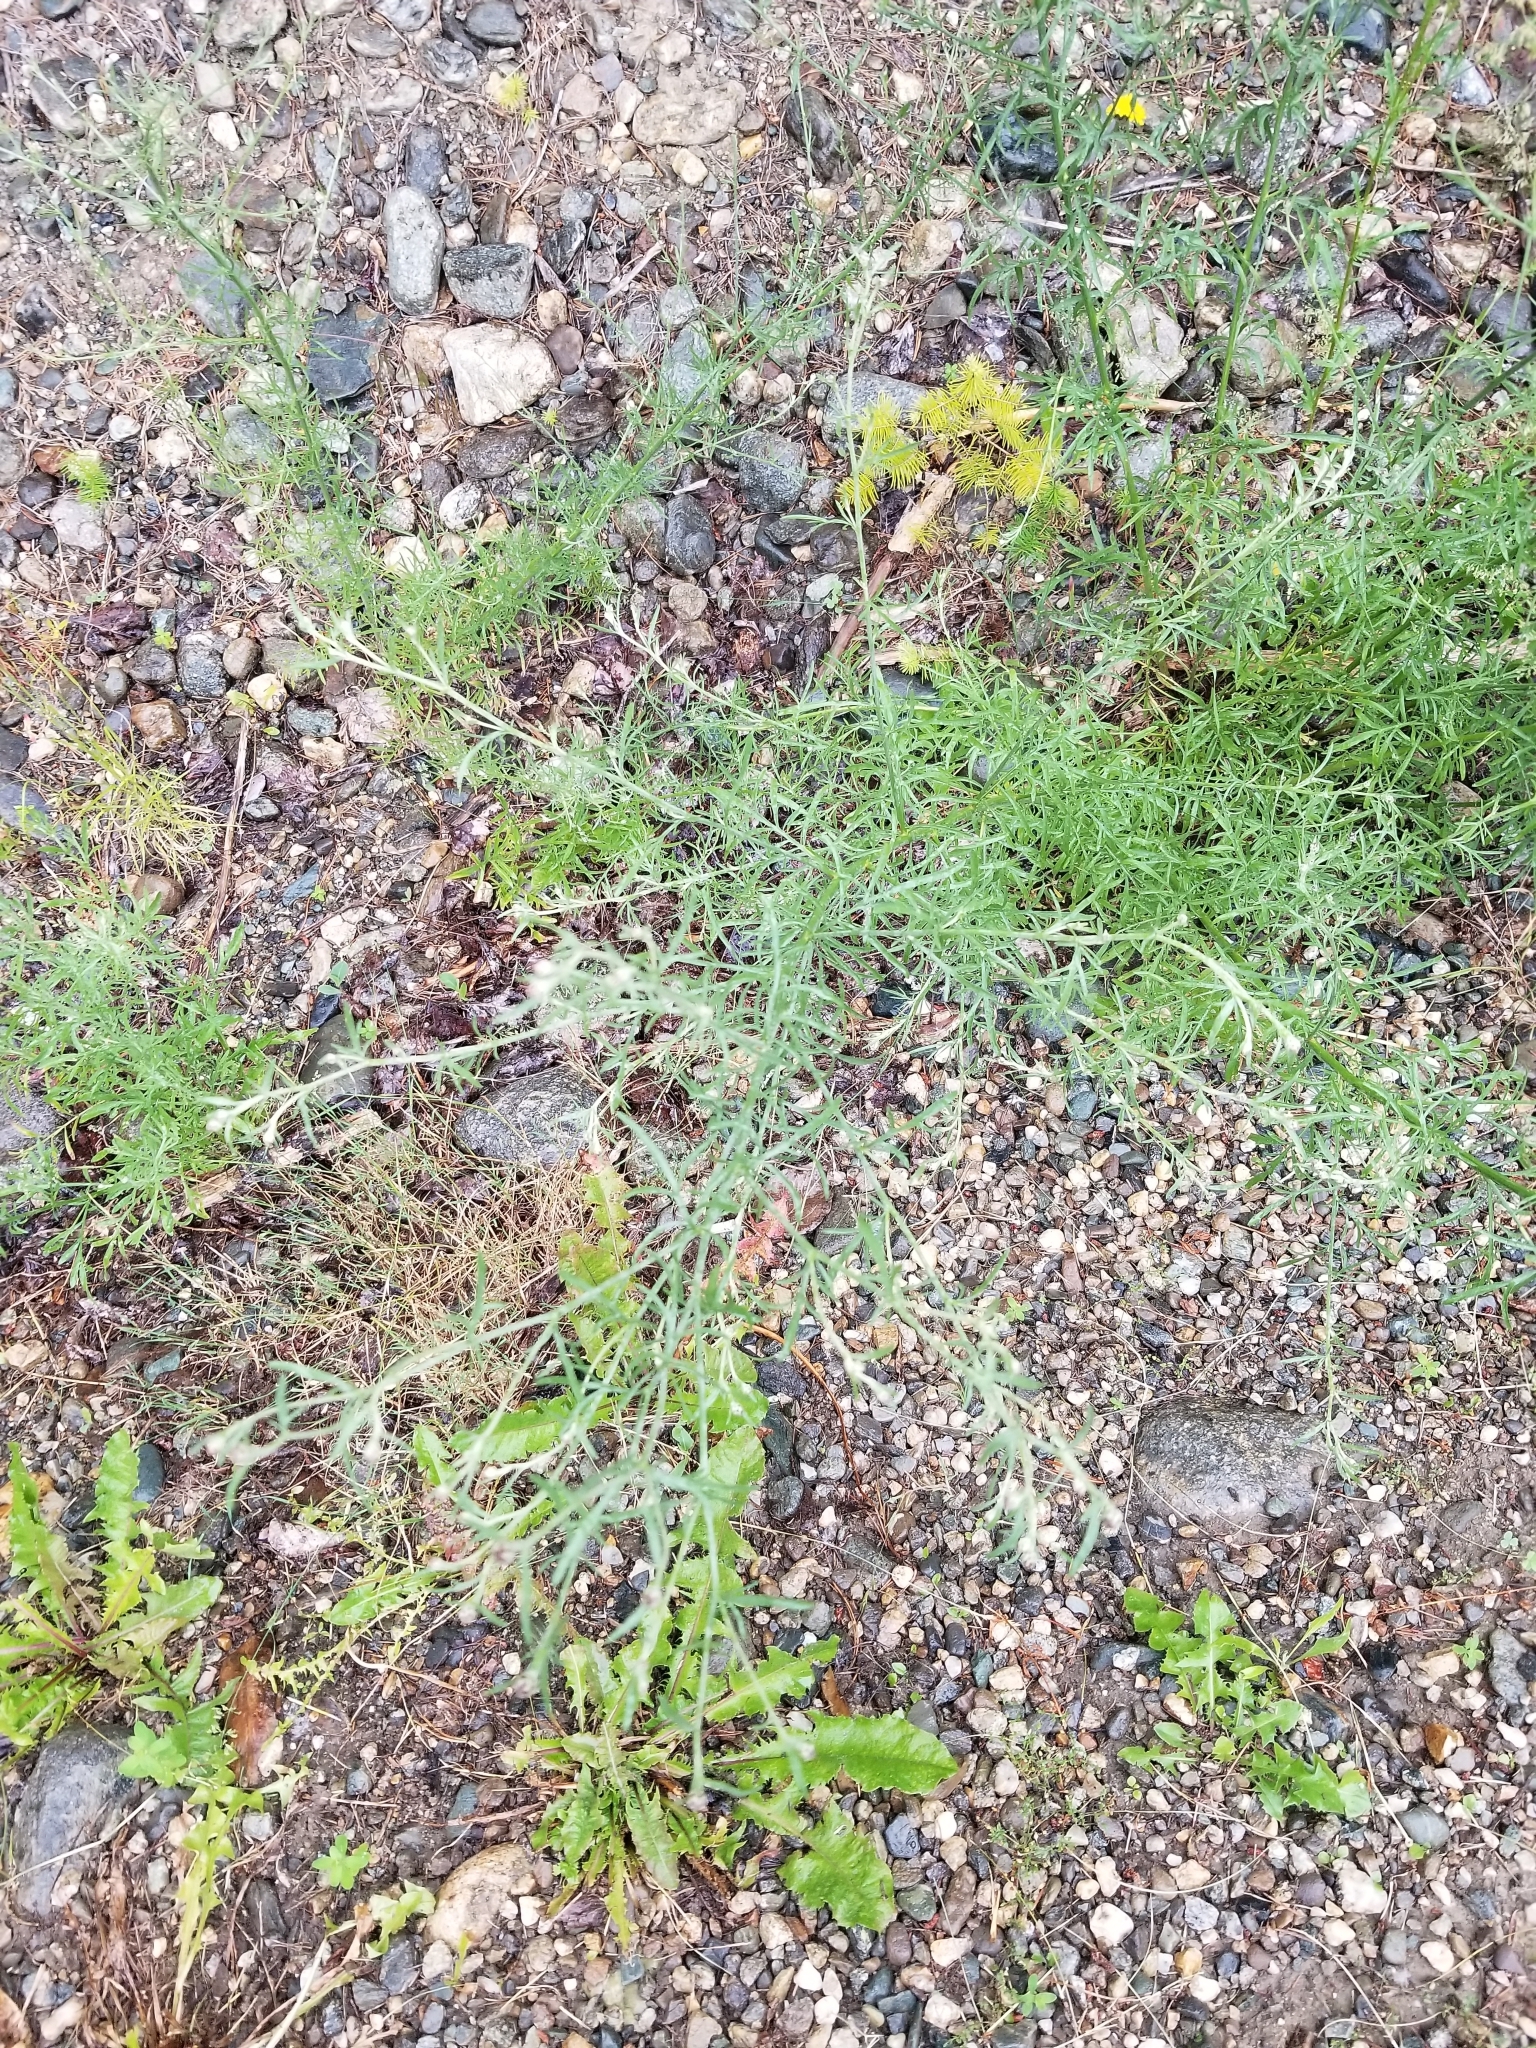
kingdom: Plantae
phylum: Tracheophyta
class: Magnoliopsida
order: Asterales
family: Asteraceae
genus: Centaurea
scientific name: Centaurea stoebe
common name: Spotted knapweed
